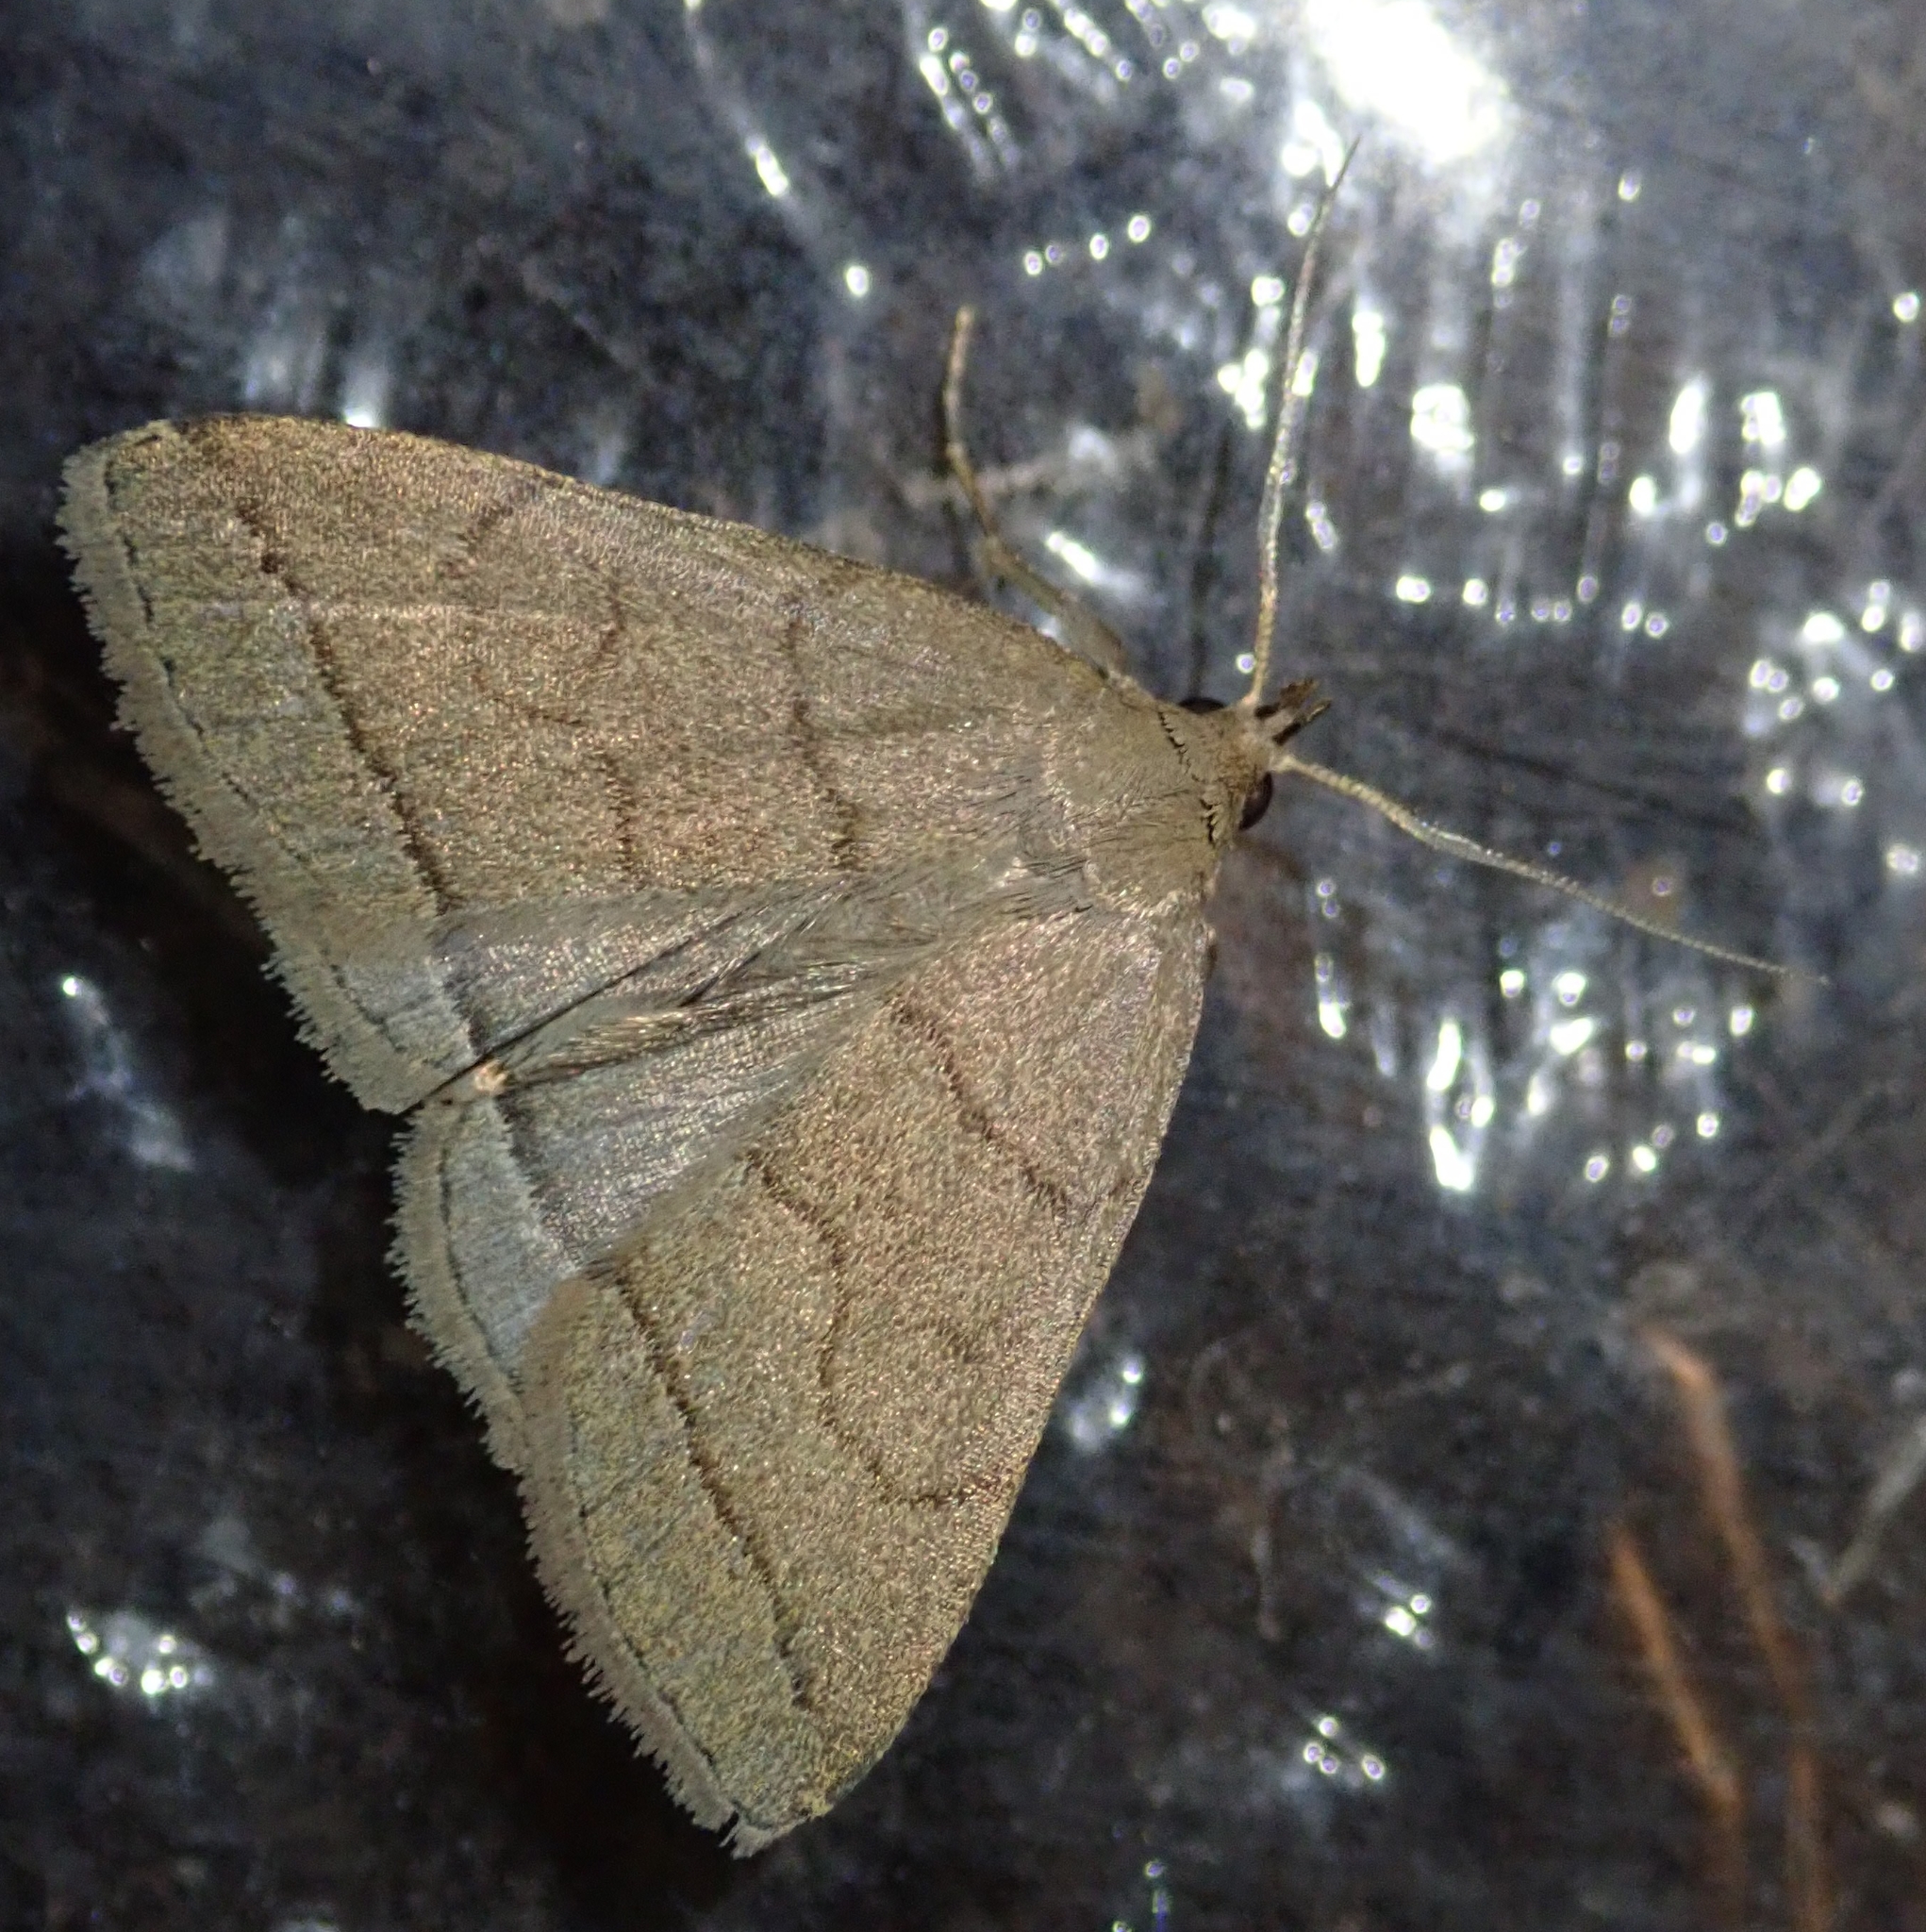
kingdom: Animalia
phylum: Arthropoda
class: Insecta
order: Lepidoptera
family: Erebidae
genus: Herminia
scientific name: Herminia tarsipennalis
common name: Fan-foot
